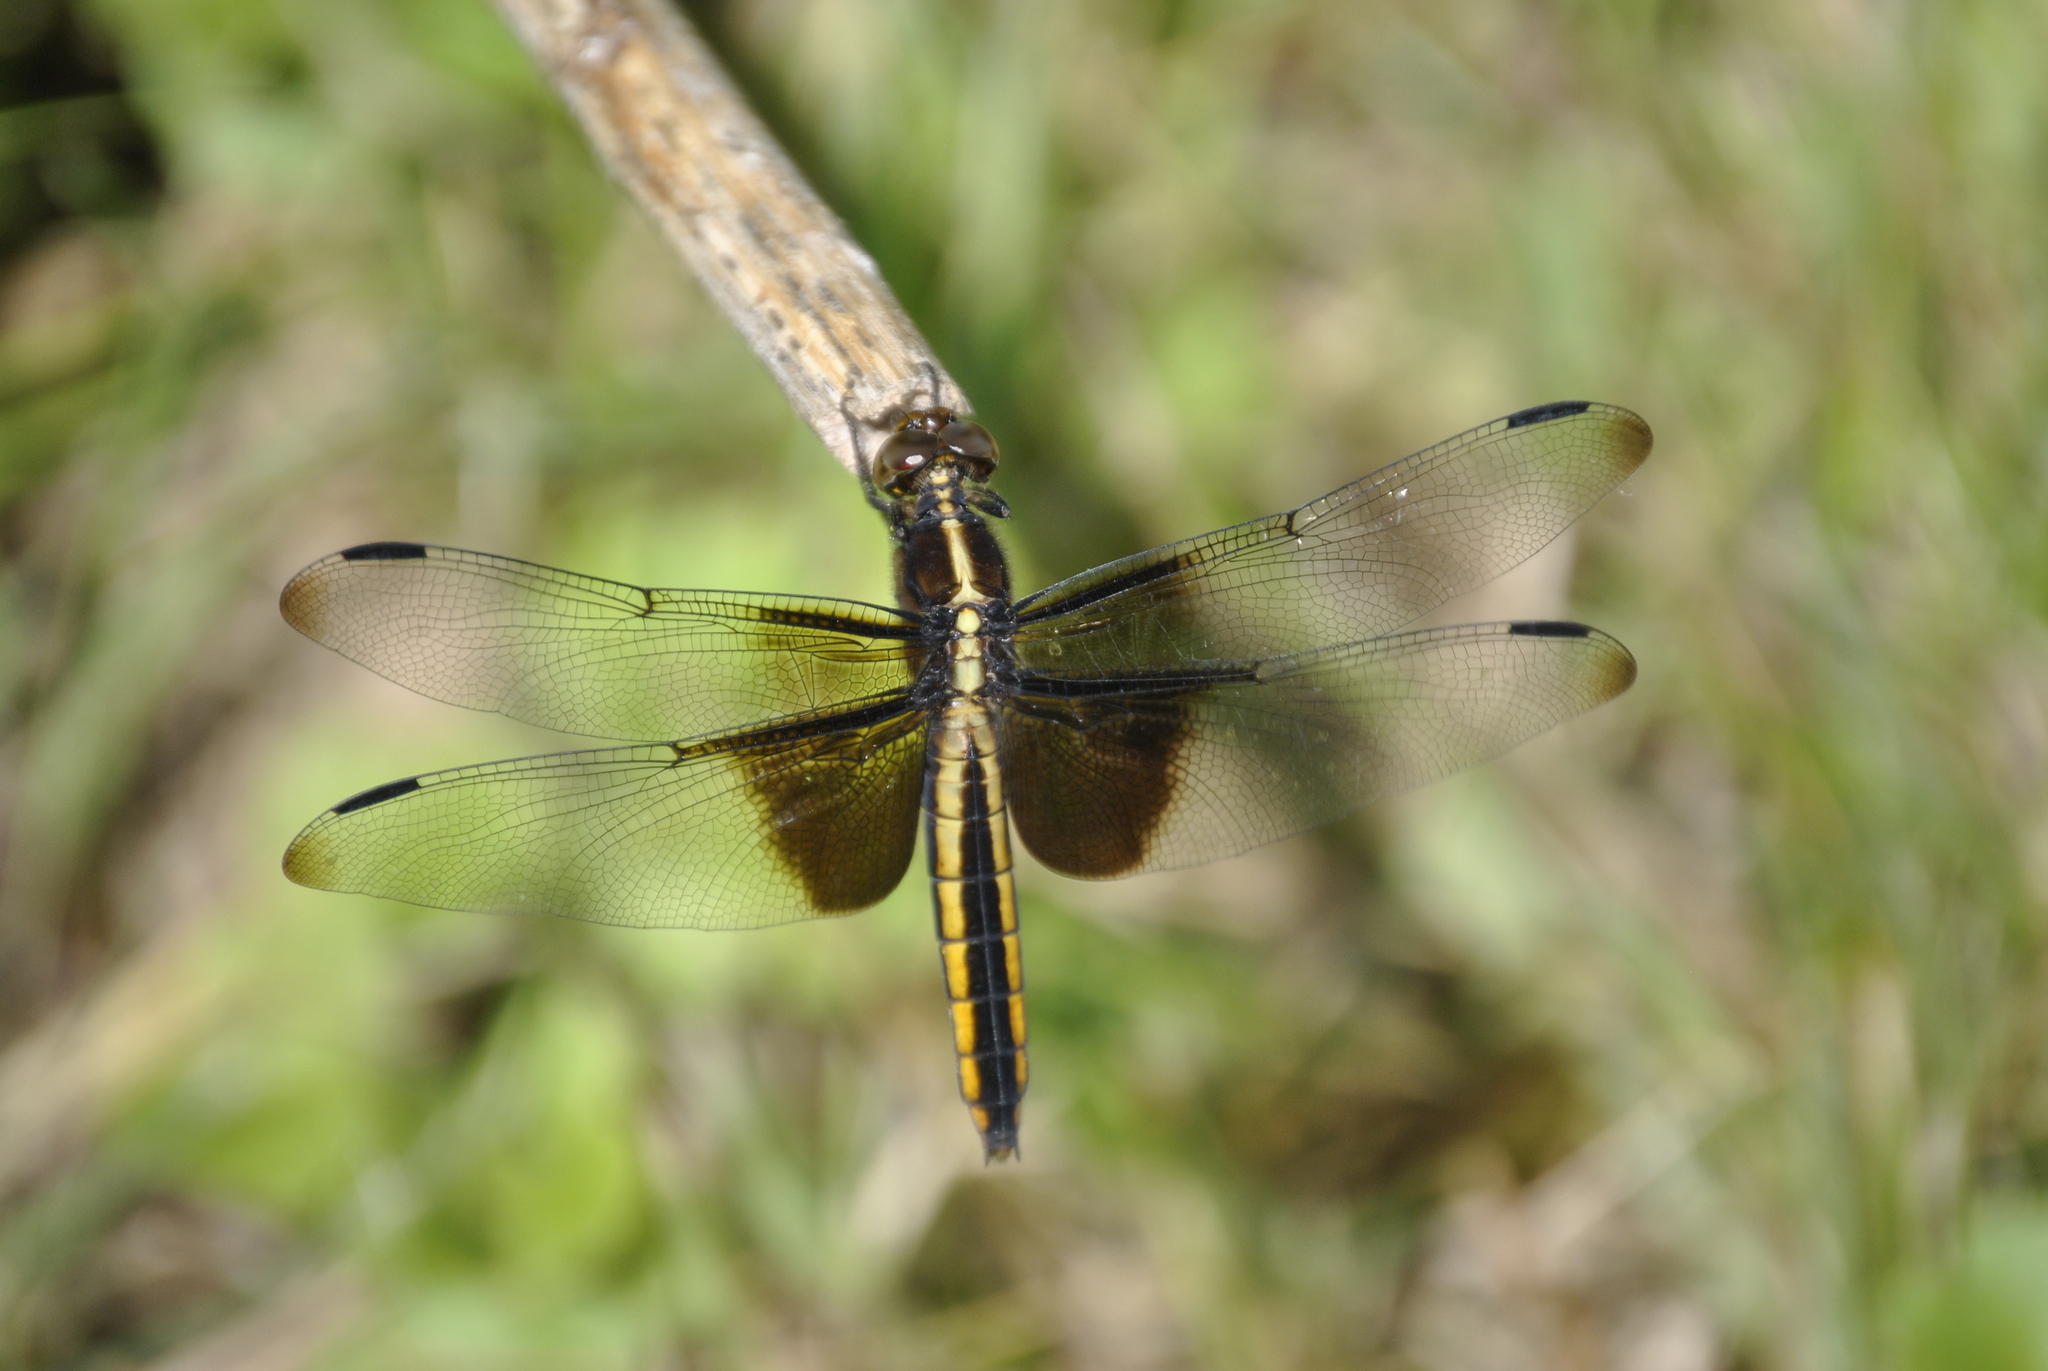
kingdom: Animalia
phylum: Arthropoda
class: Insecta
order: Odonata
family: Libellulidae
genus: Libellula
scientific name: Libellula luctuosa
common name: Widow skimmer
